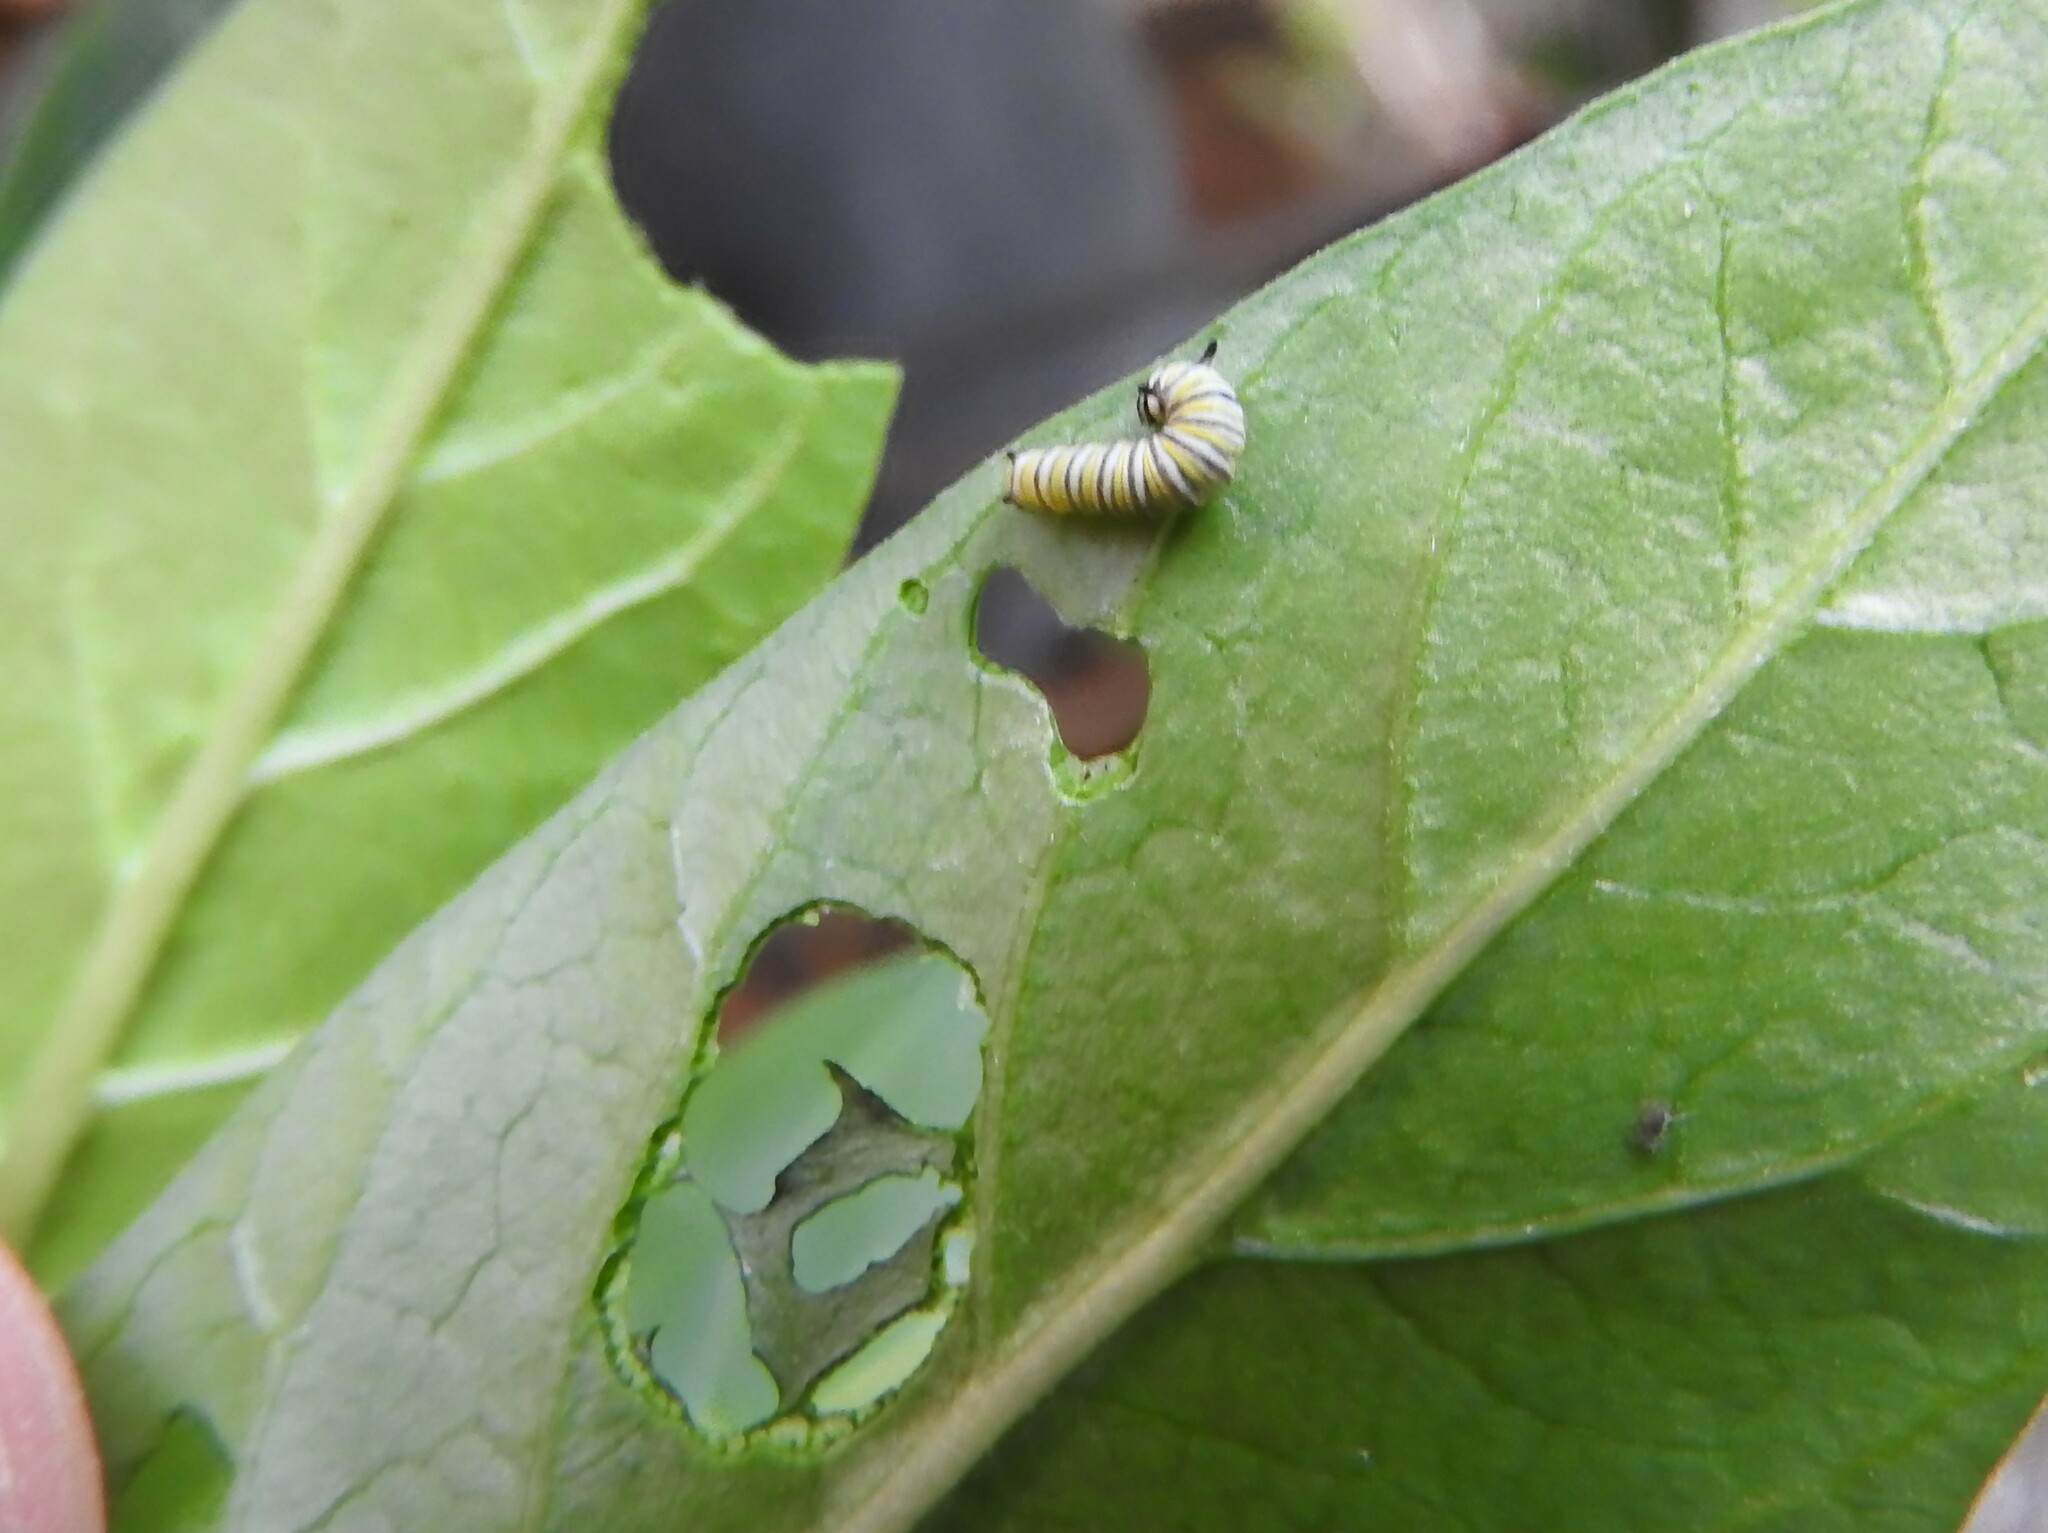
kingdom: Animalia
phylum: Arthropoda
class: Insecta
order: Lepidoptera
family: Nymphalidae
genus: Danaus
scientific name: Danaus plexippus
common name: Monarch
